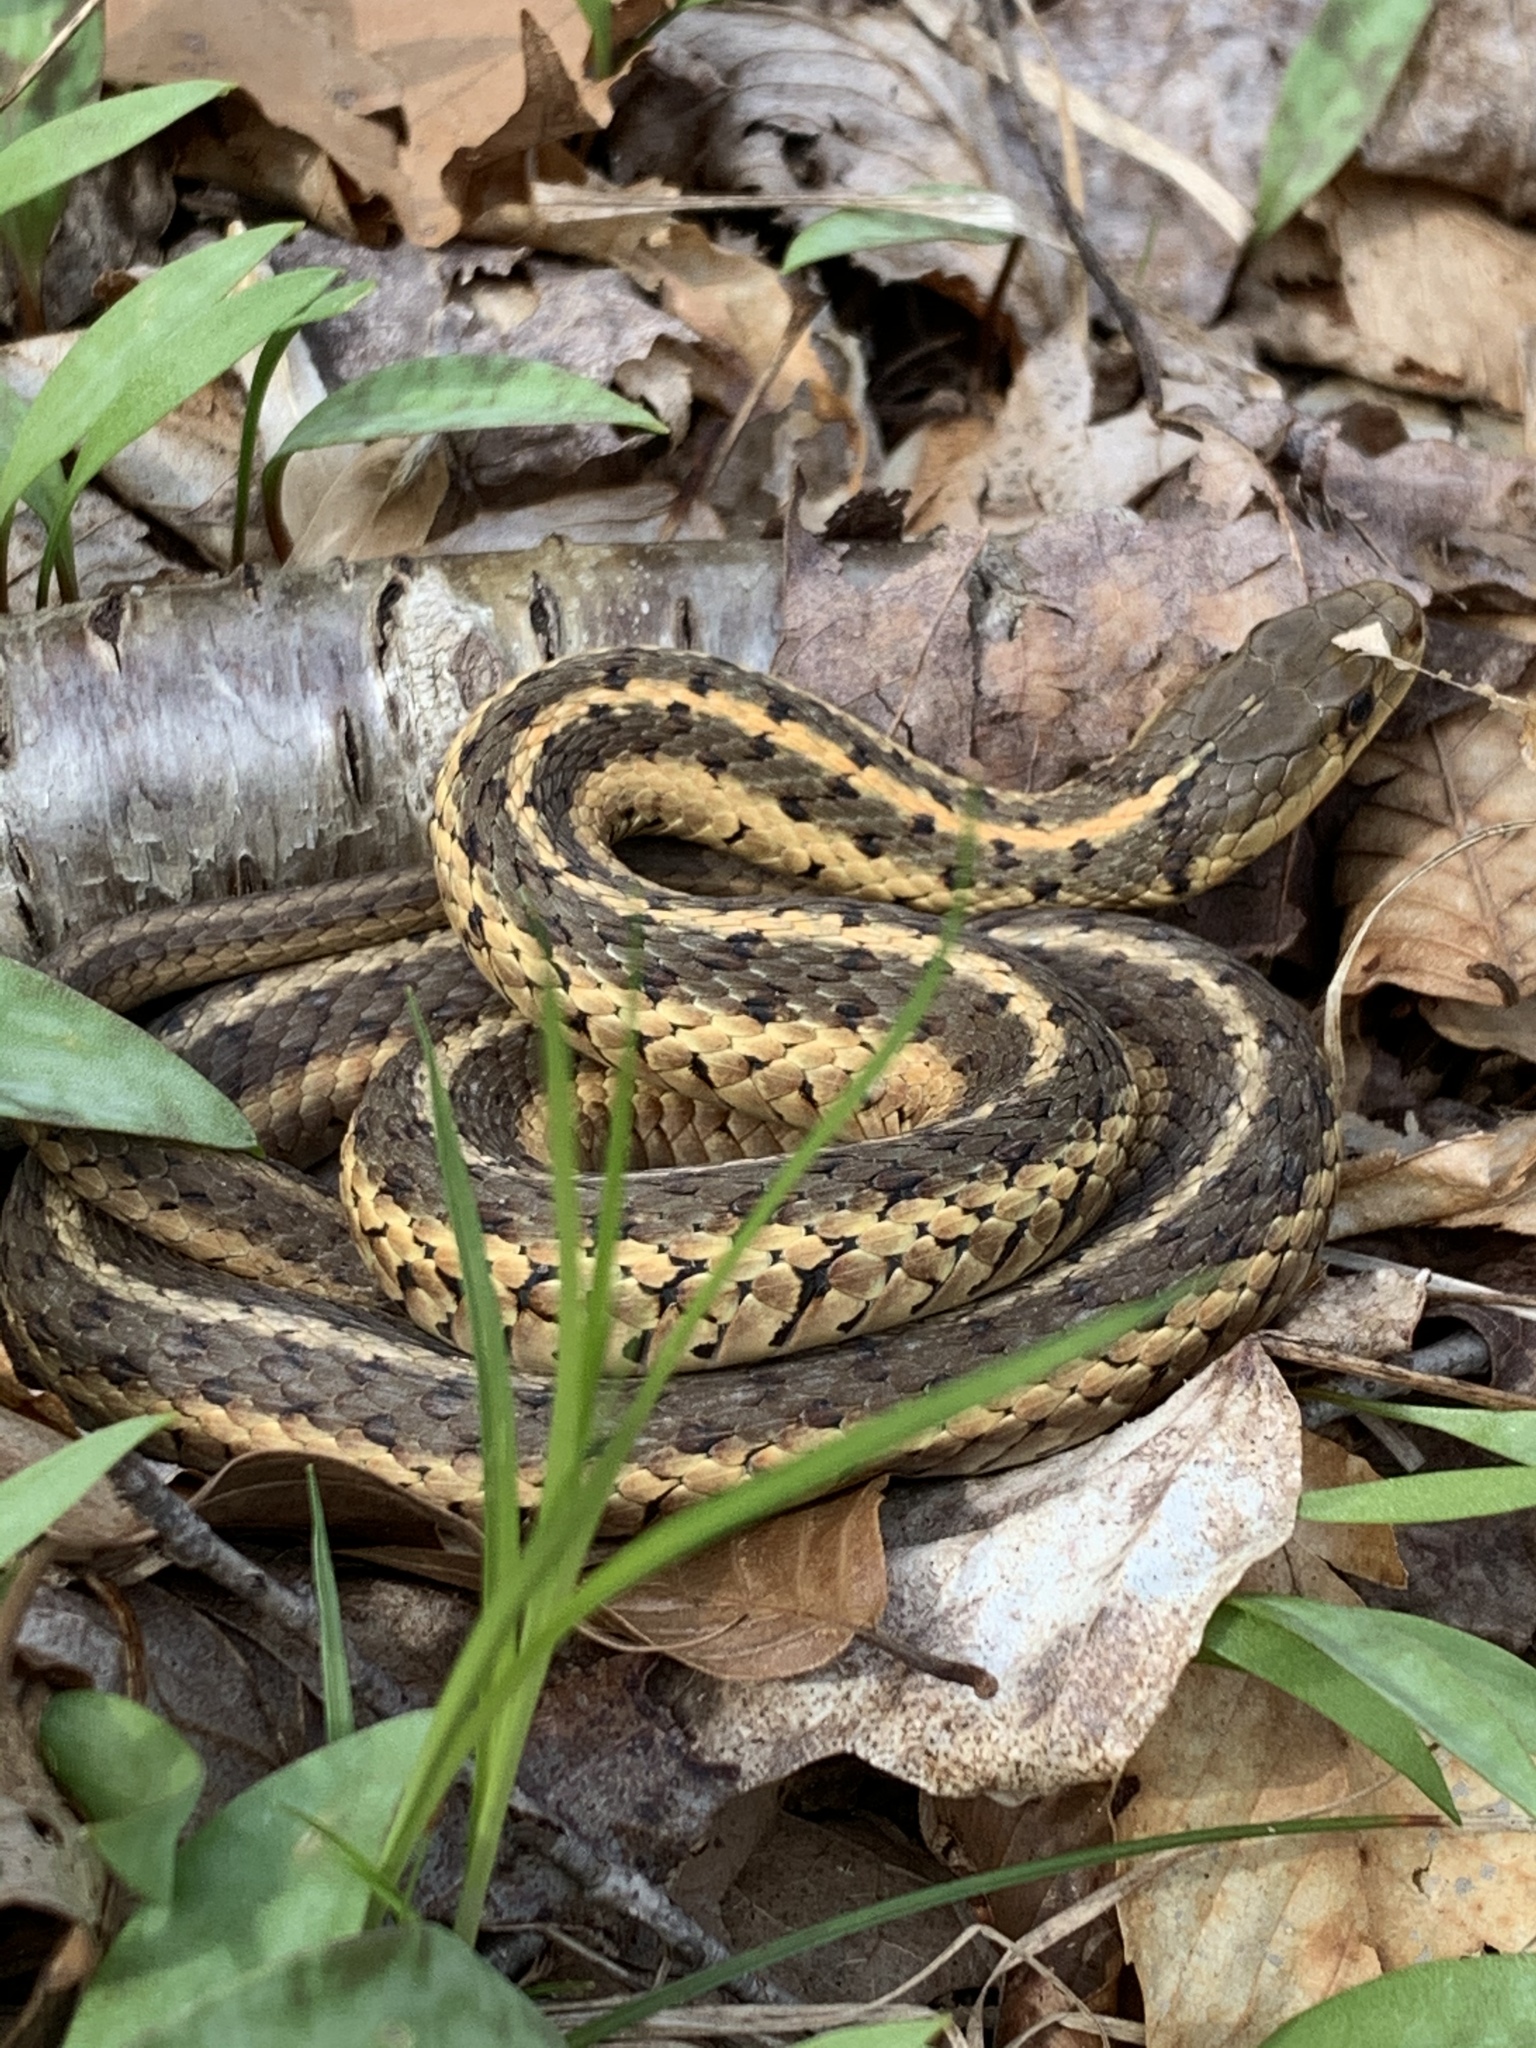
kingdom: Animalia
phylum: Chordata
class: Squamata
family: Colubridae
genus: Thamnophis
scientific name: Thamnophis sirtalis
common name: Common garter snake
